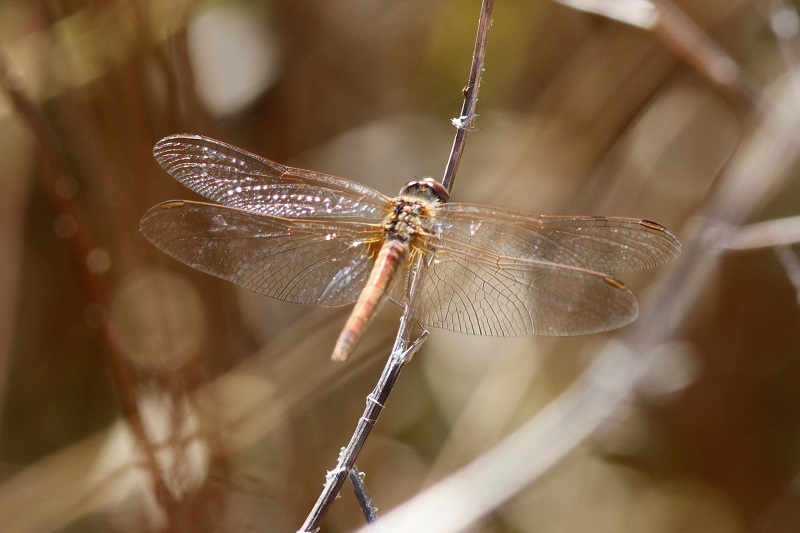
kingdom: Animalia
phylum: Arthropoda
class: Insecta
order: Odonata
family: Libellulidae
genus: Sympetrum
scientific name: Sympetrum fonscolombii
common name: Red-veined darter
